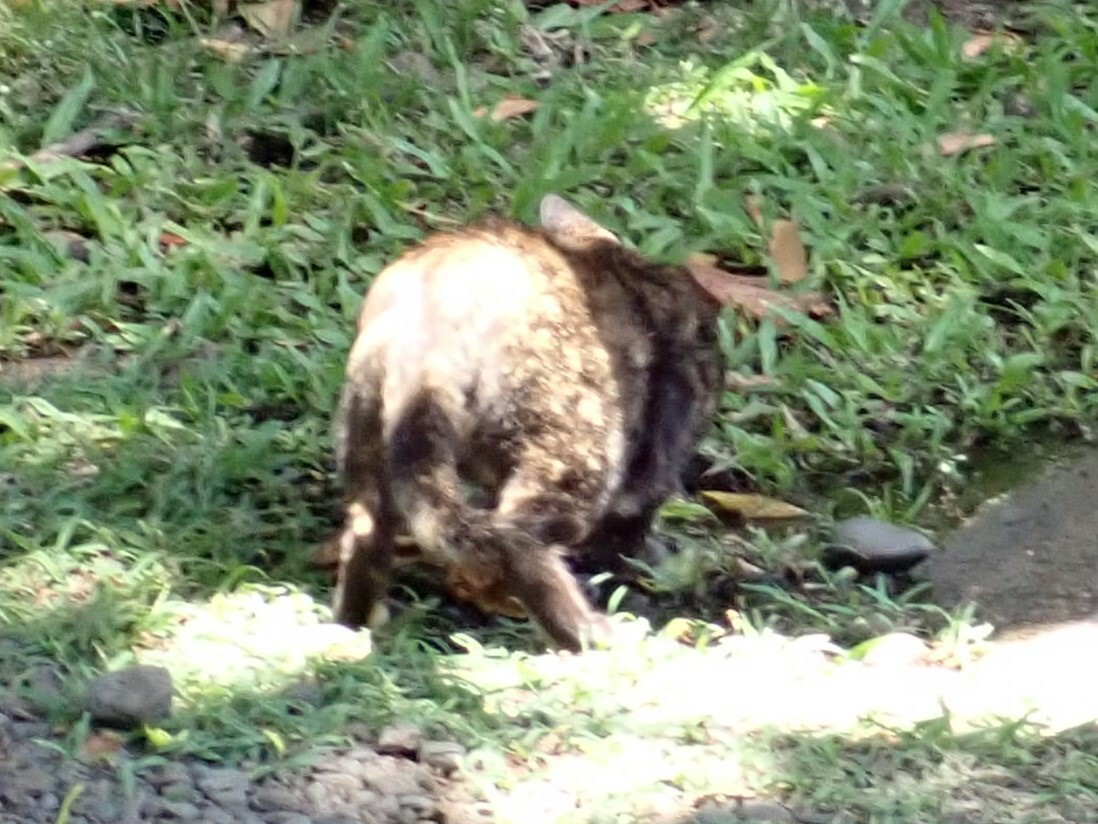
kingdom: Animalia
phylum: Chordata
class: Mammalia
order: Carnivora
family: Felidae
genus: Felis
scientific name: Felis catus
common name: Domestic cat
